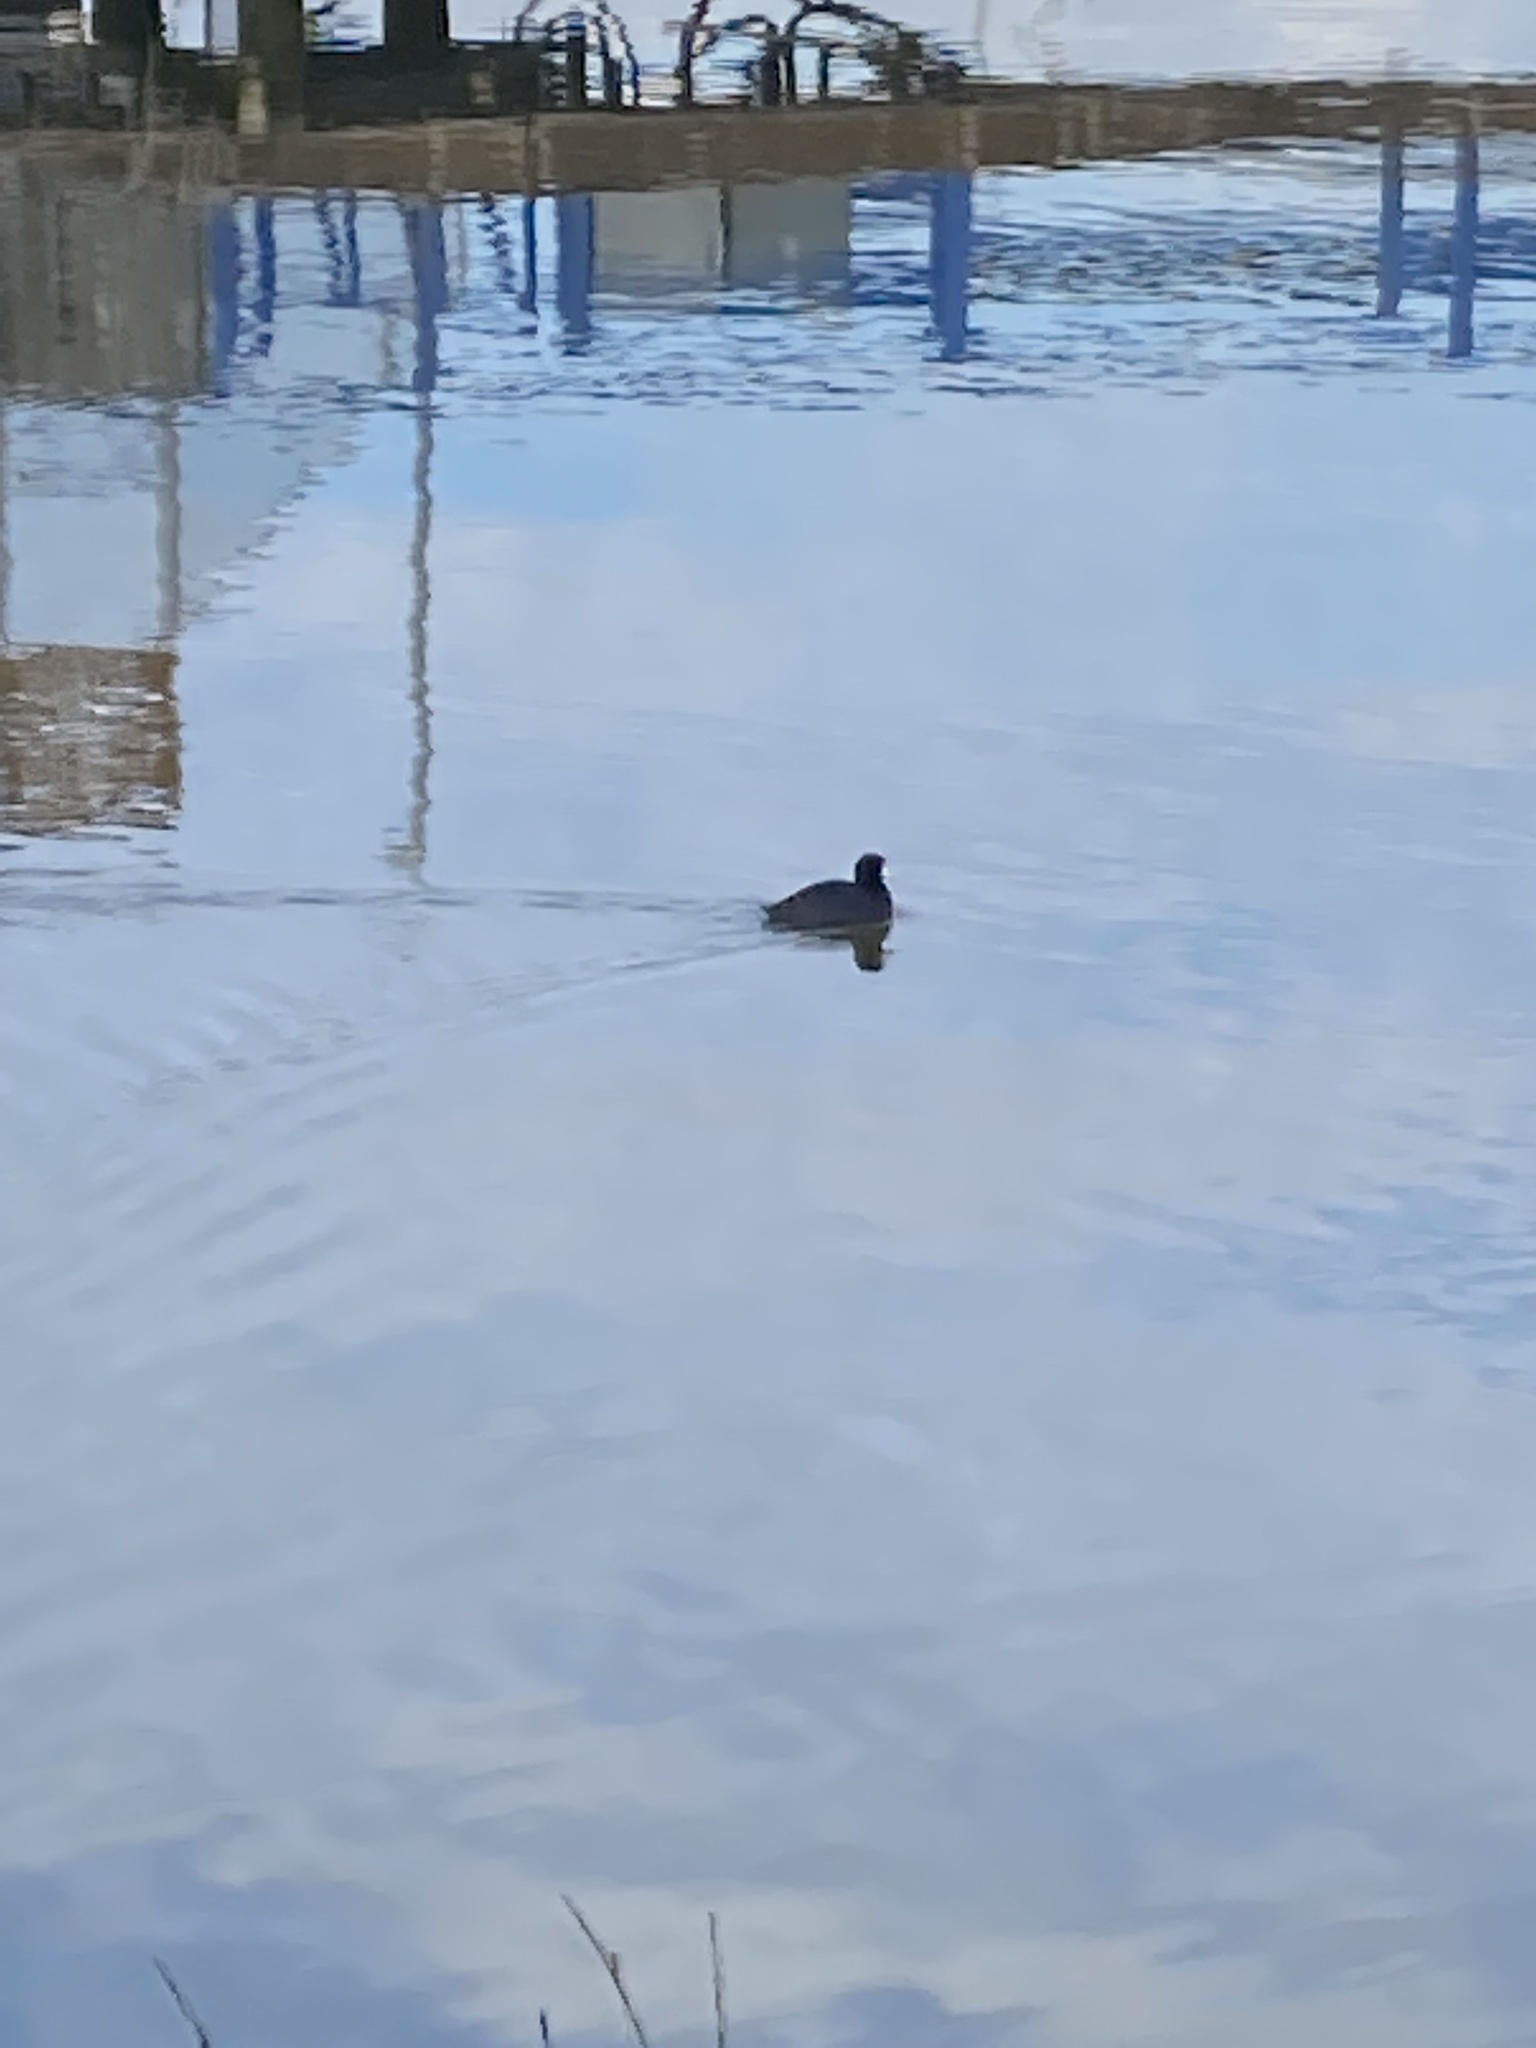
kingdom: Animalia
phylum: Chordata
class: Aves
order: Gruiformes
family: Rallidae
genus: Fulica
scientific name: Fulica americana
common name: American coot
